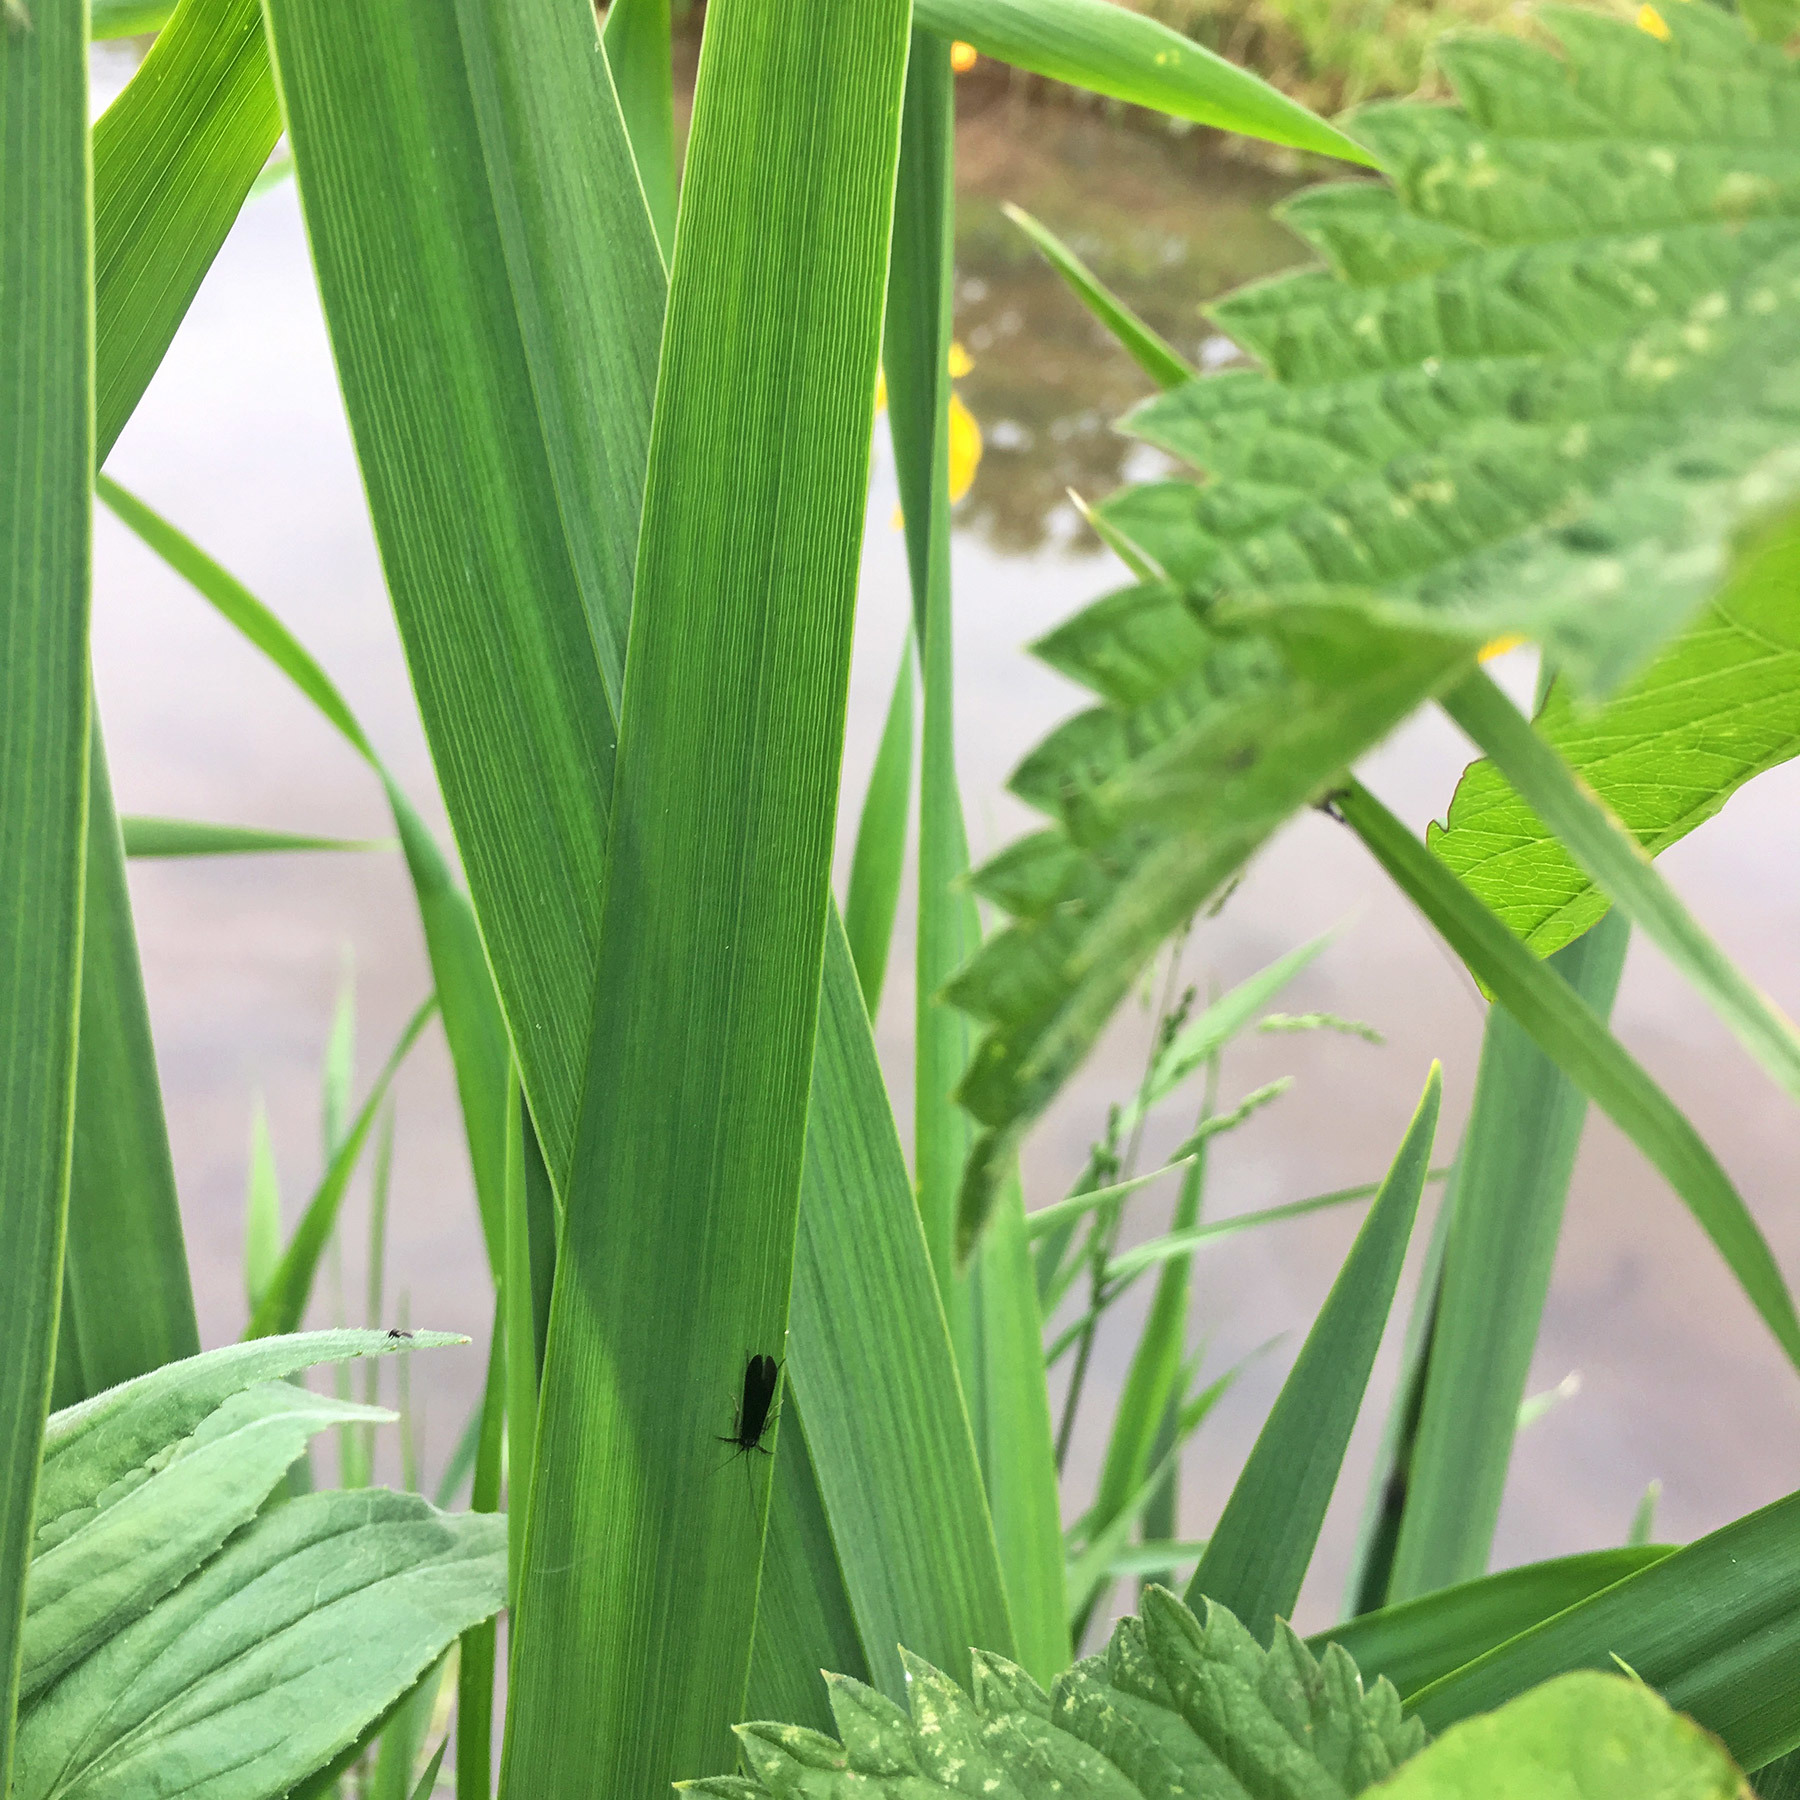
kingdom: Animalia
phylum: Arthropoda
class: Insecta
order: Trichoptera
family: Leptoceridae
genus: Mystacides
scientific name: Mystacides niger
